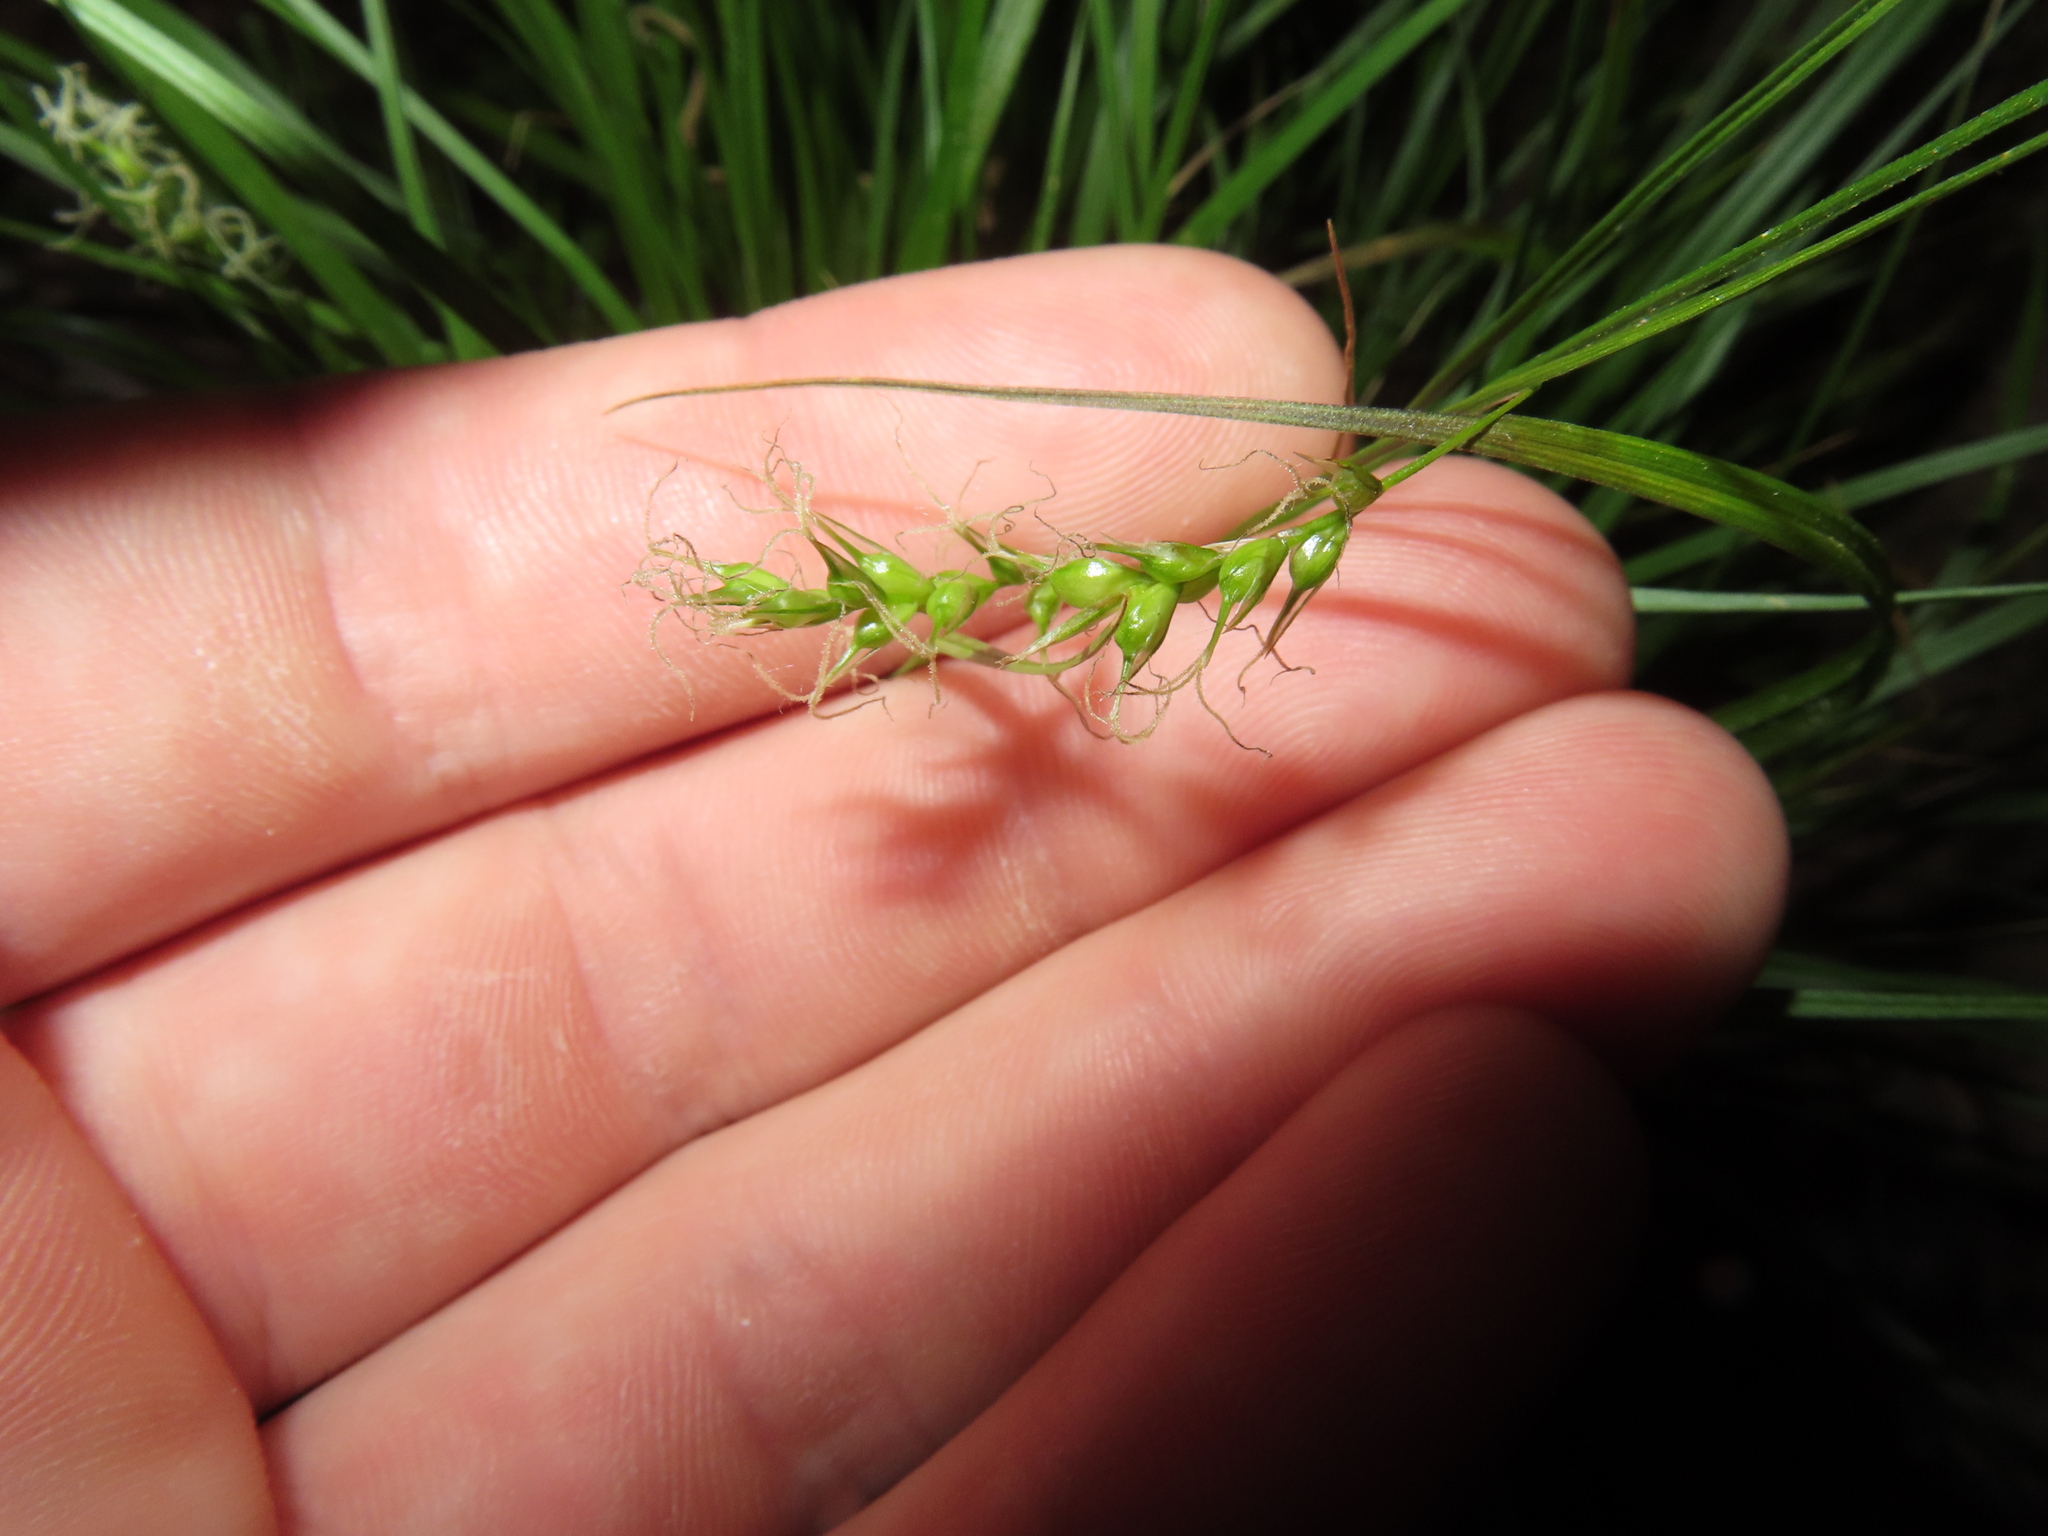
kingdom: Plantae
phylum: Tracheophyta
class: Liliopsida
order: Poales
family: Cyperaceae
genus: Carex
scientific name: Carex sprengelii
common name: Long-beaked sedge
